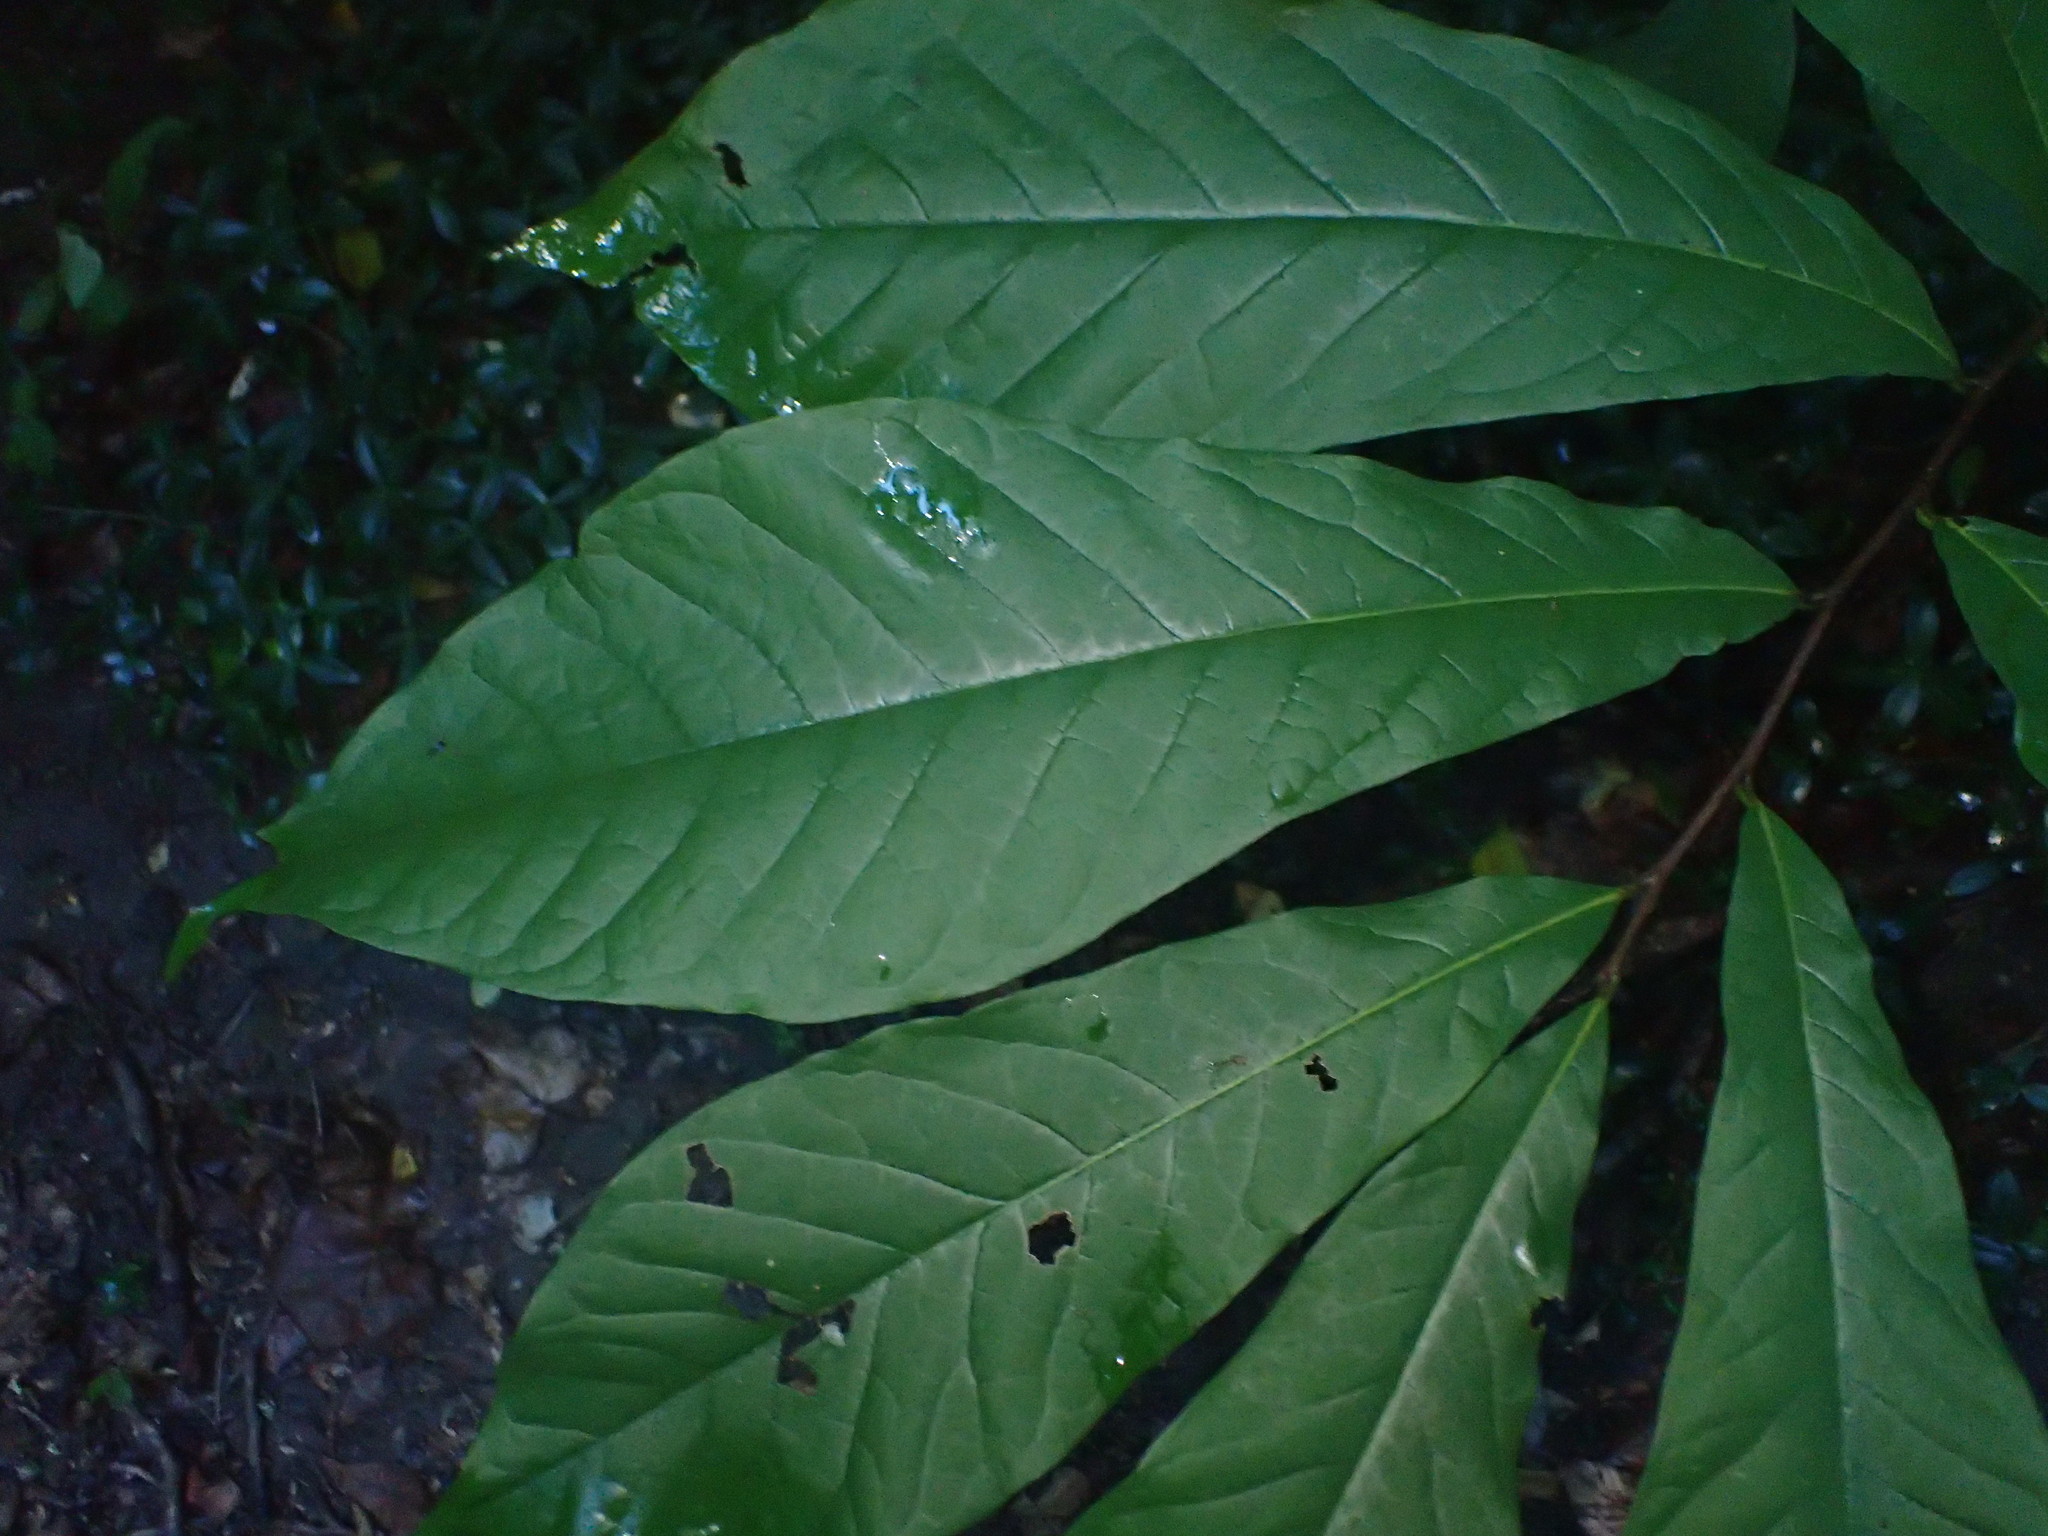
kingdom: Plantae
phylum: Tracheophyta
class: Magnoliopsida
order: Magnoliales
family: Annonaceae
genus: Asimina
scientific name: Asimina triloba
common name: Dog-banana
